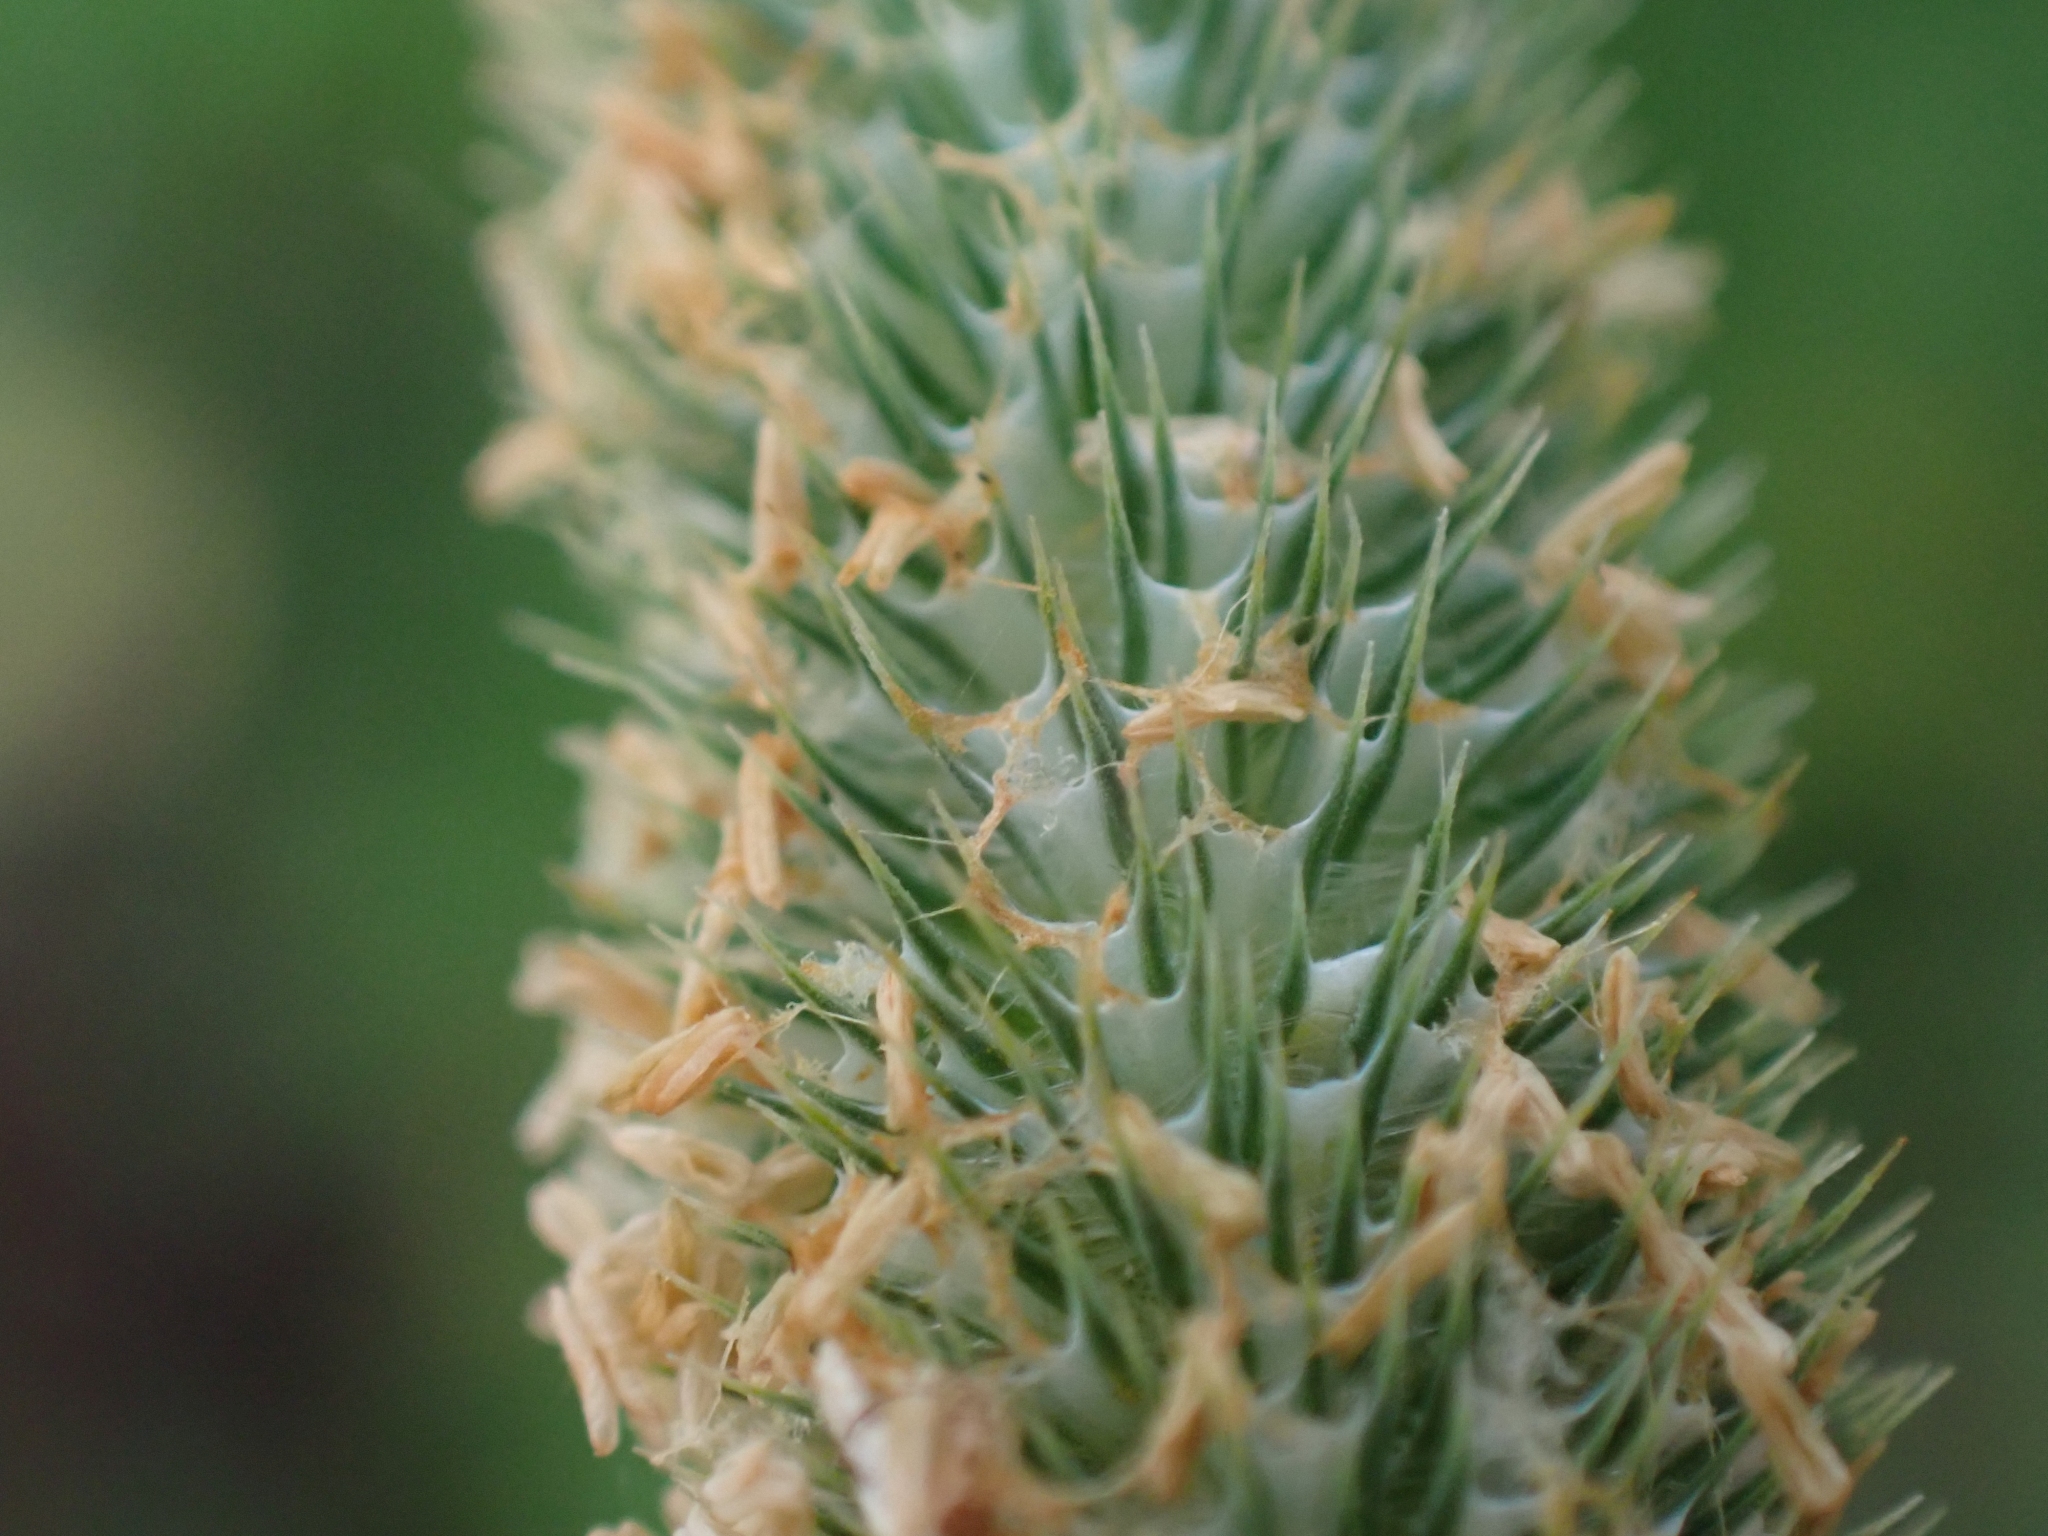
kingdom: Plantae
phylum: Tracheophyta
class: Liliopsida
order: Poales
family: Poaceae
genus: Phleum
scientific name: Phleum pratense
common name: Timothy grass
